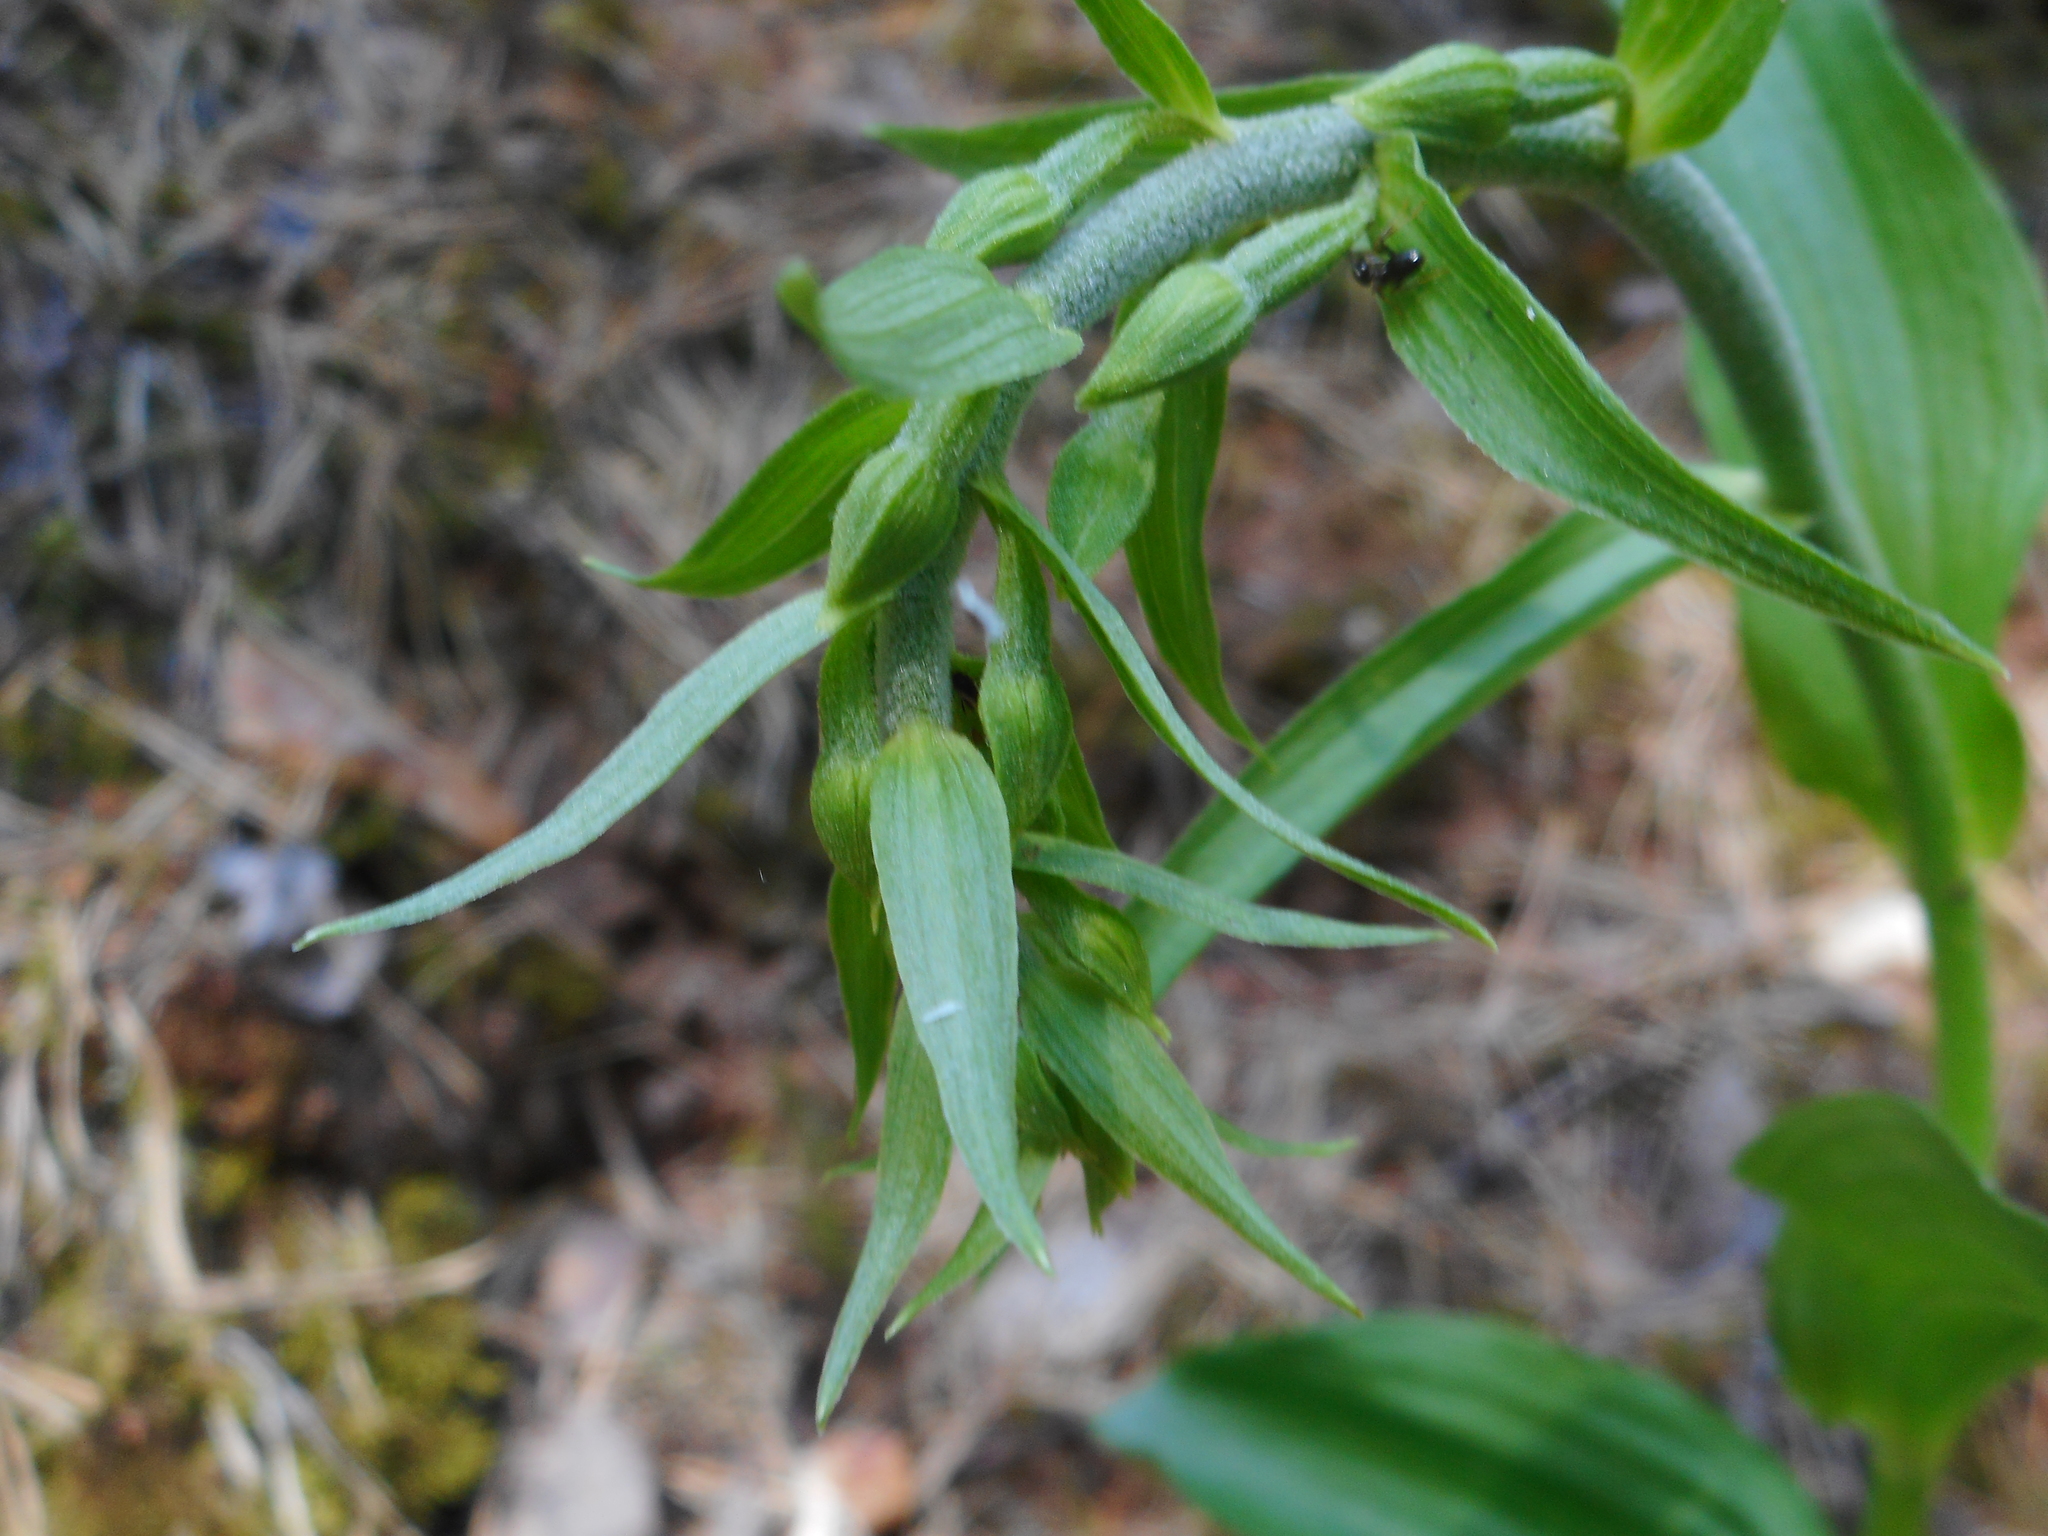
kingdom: Plantae
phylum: Tracheophyta
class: Liliopsida
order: Asparagales
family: Orchidaceae
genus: Epipactis
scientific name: Epipactis helleborine
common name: Broad-leaved helleborine
